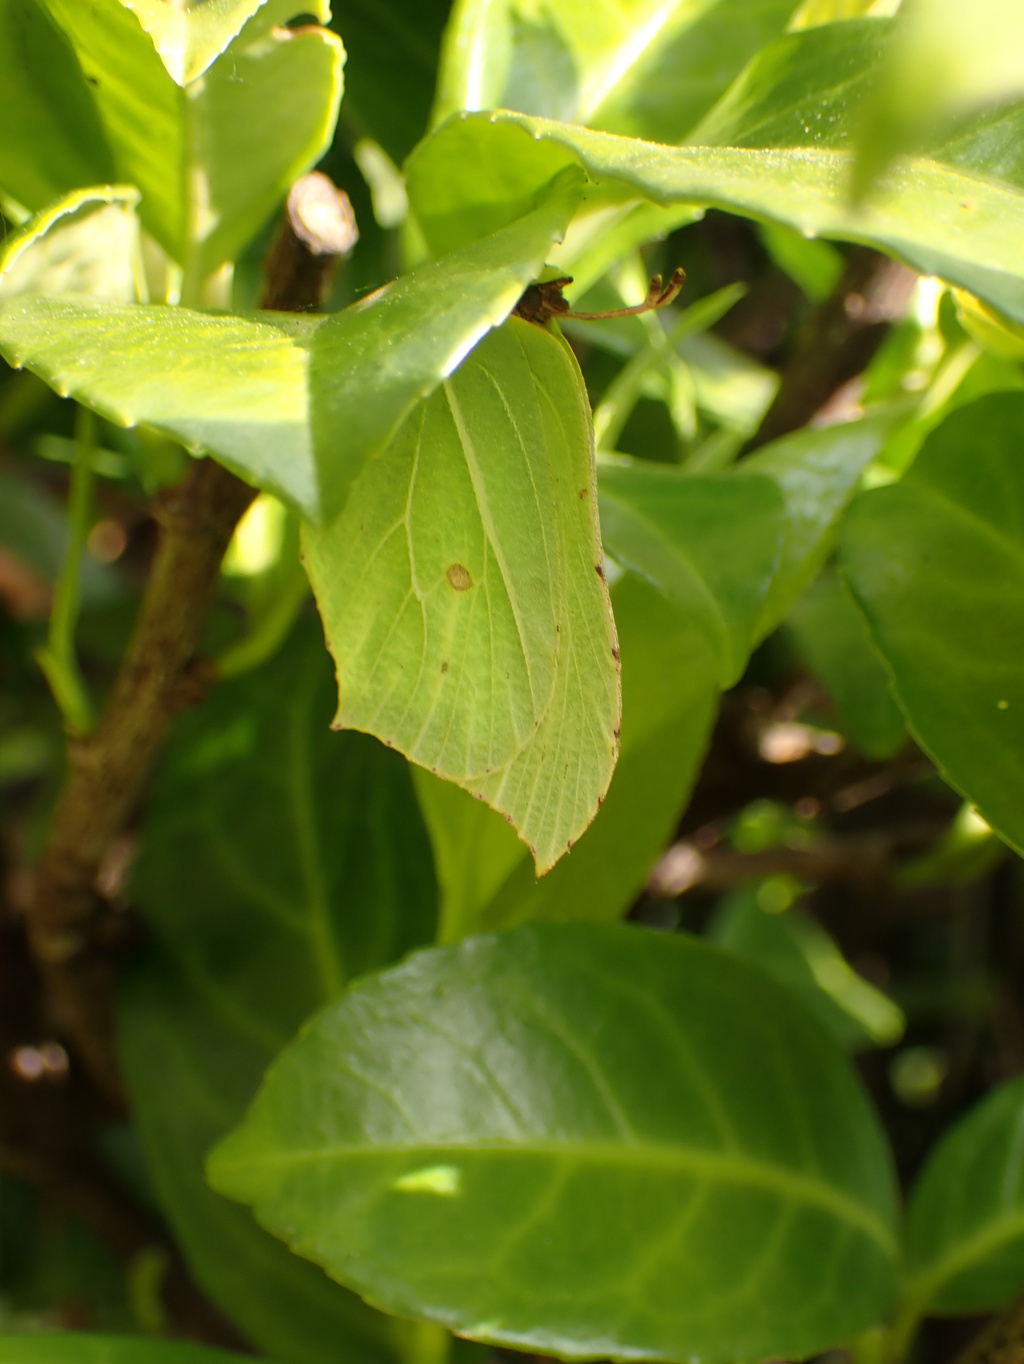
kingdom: Animalia
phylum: Arthropoda
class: Insecta
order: Lepidoptera
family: Pieridae
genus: Gonepteryx
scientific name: Gonepteryx rhamni
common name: Brimstone
